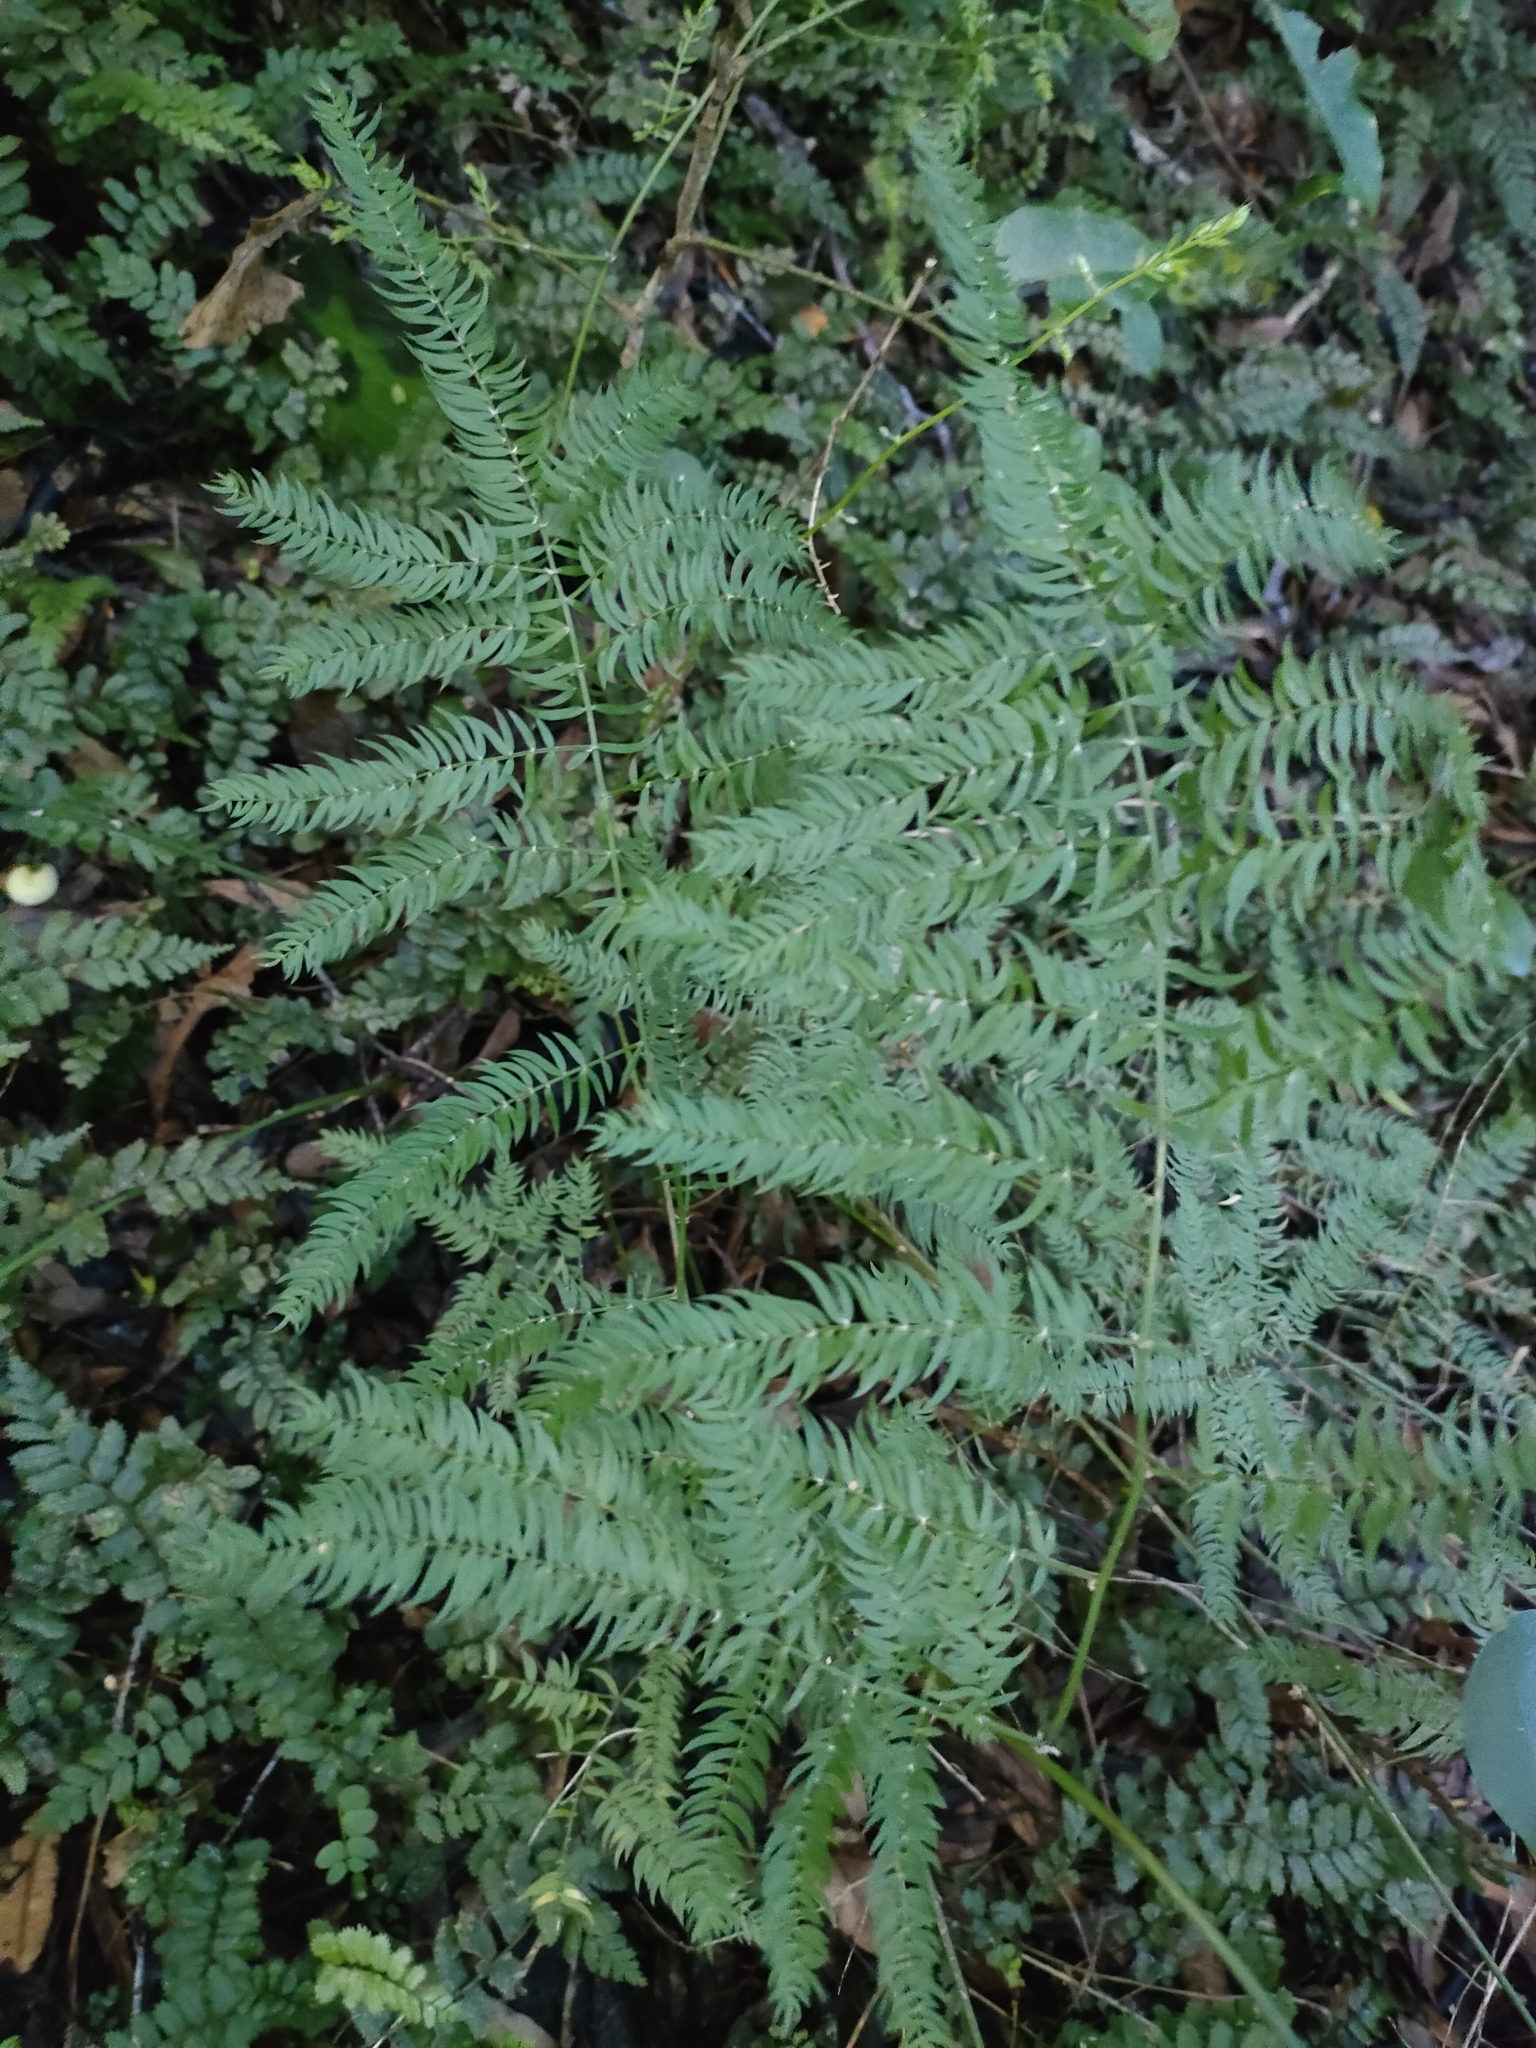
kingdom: Plantae
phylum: Tracheophyta
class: Liliopsida
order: Asparagales
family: Asparagaceae
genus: Asparagus
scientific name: Asparagus scandens
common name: Asparagus-fern
